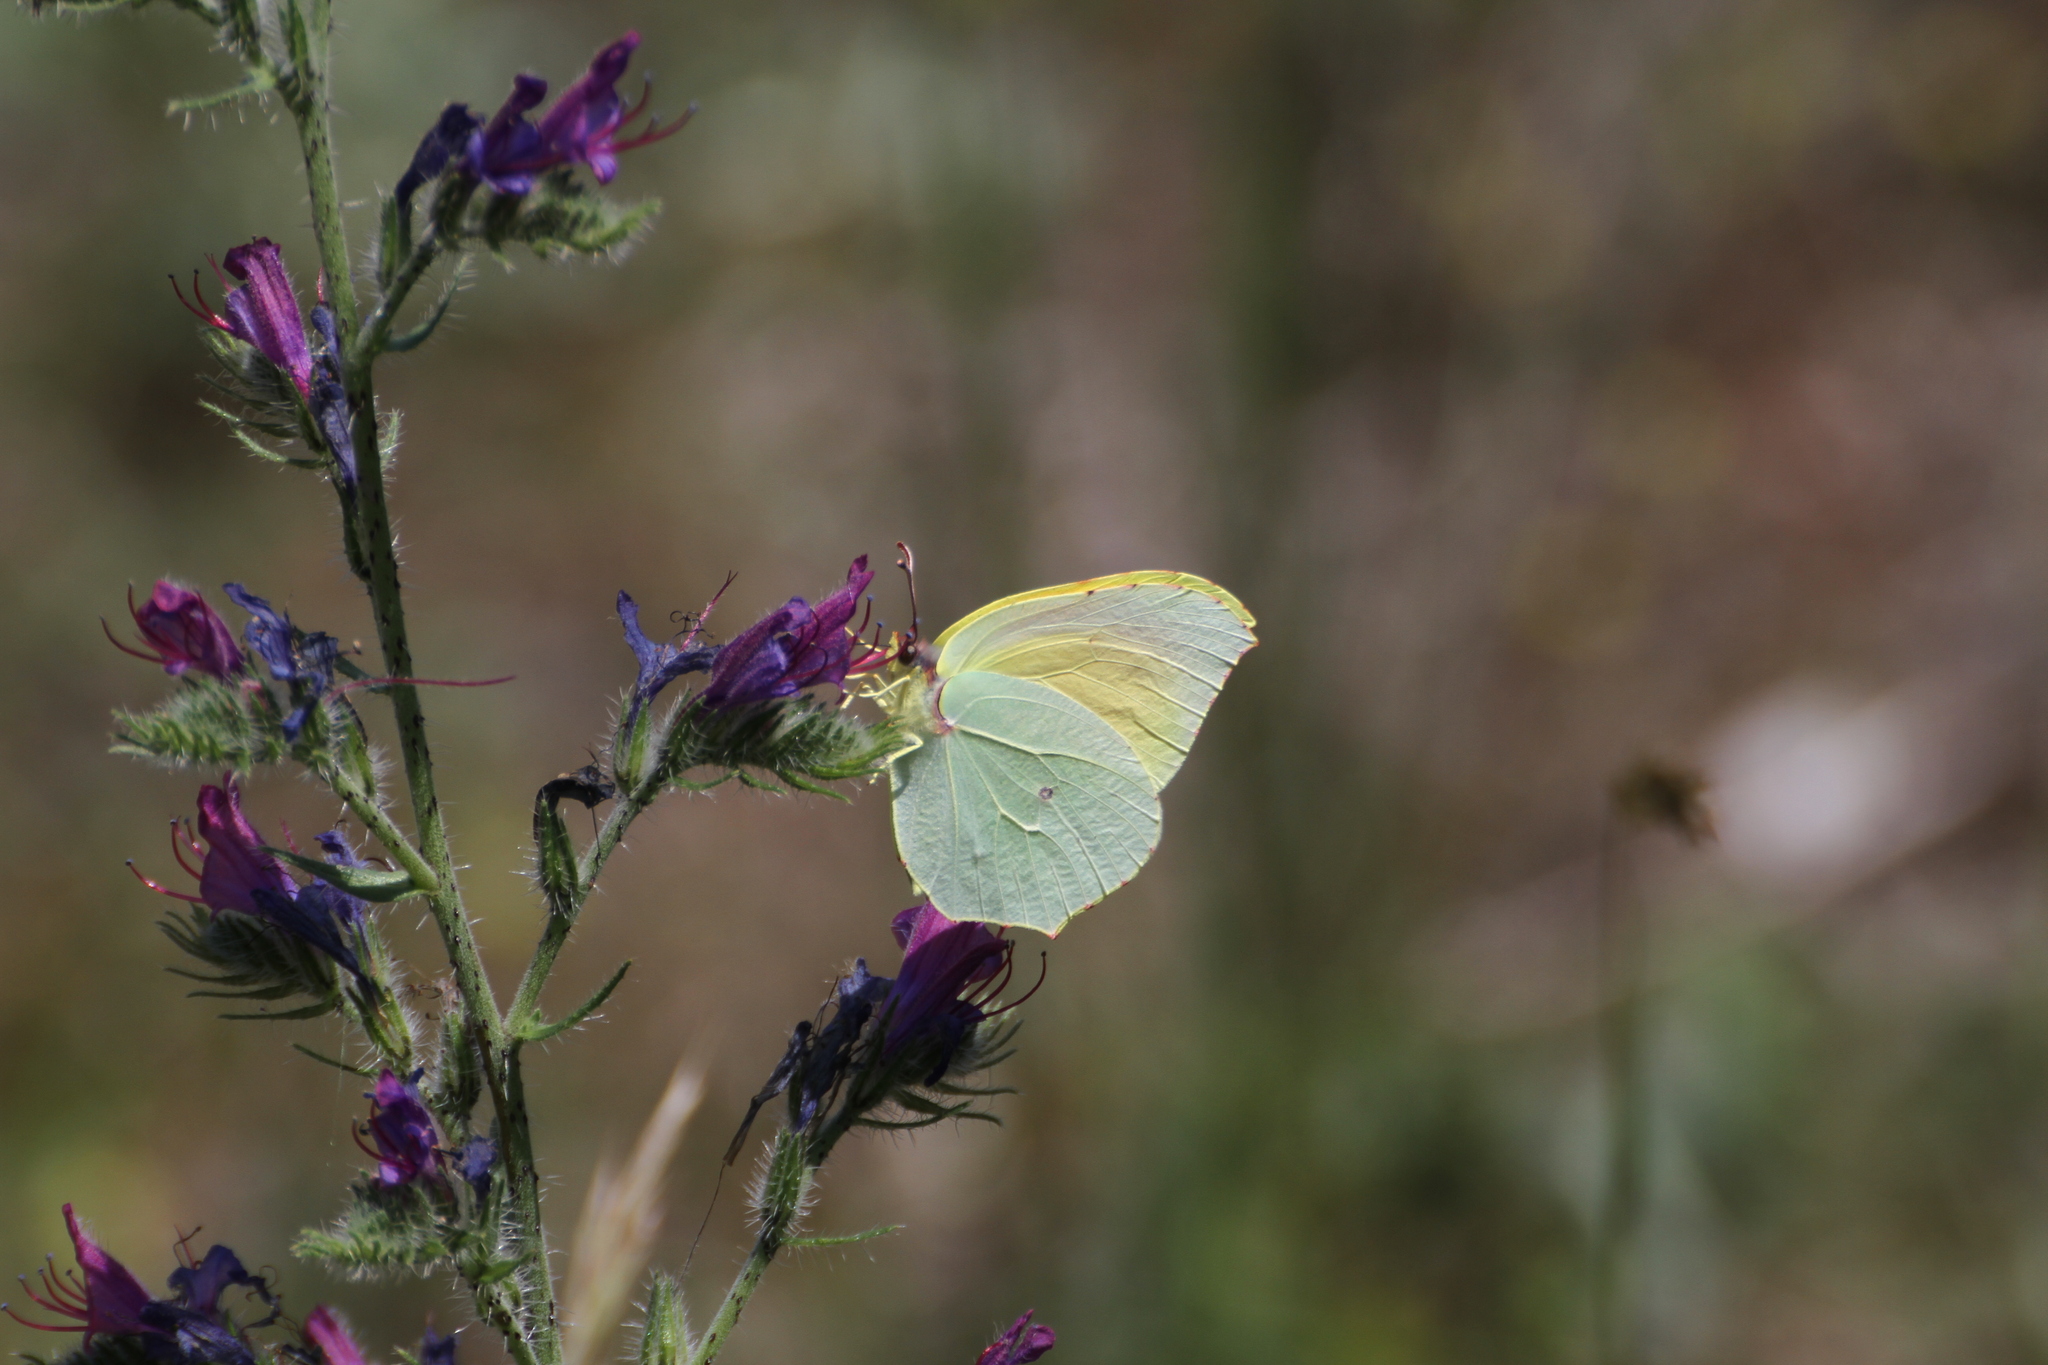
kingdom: Animalia
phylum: Arthropoda
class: Insecta
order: Lepidoptera
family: Pieridae
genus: Gonepteryx
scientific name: Gonepteryx cleopatra
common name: Cleopatra
